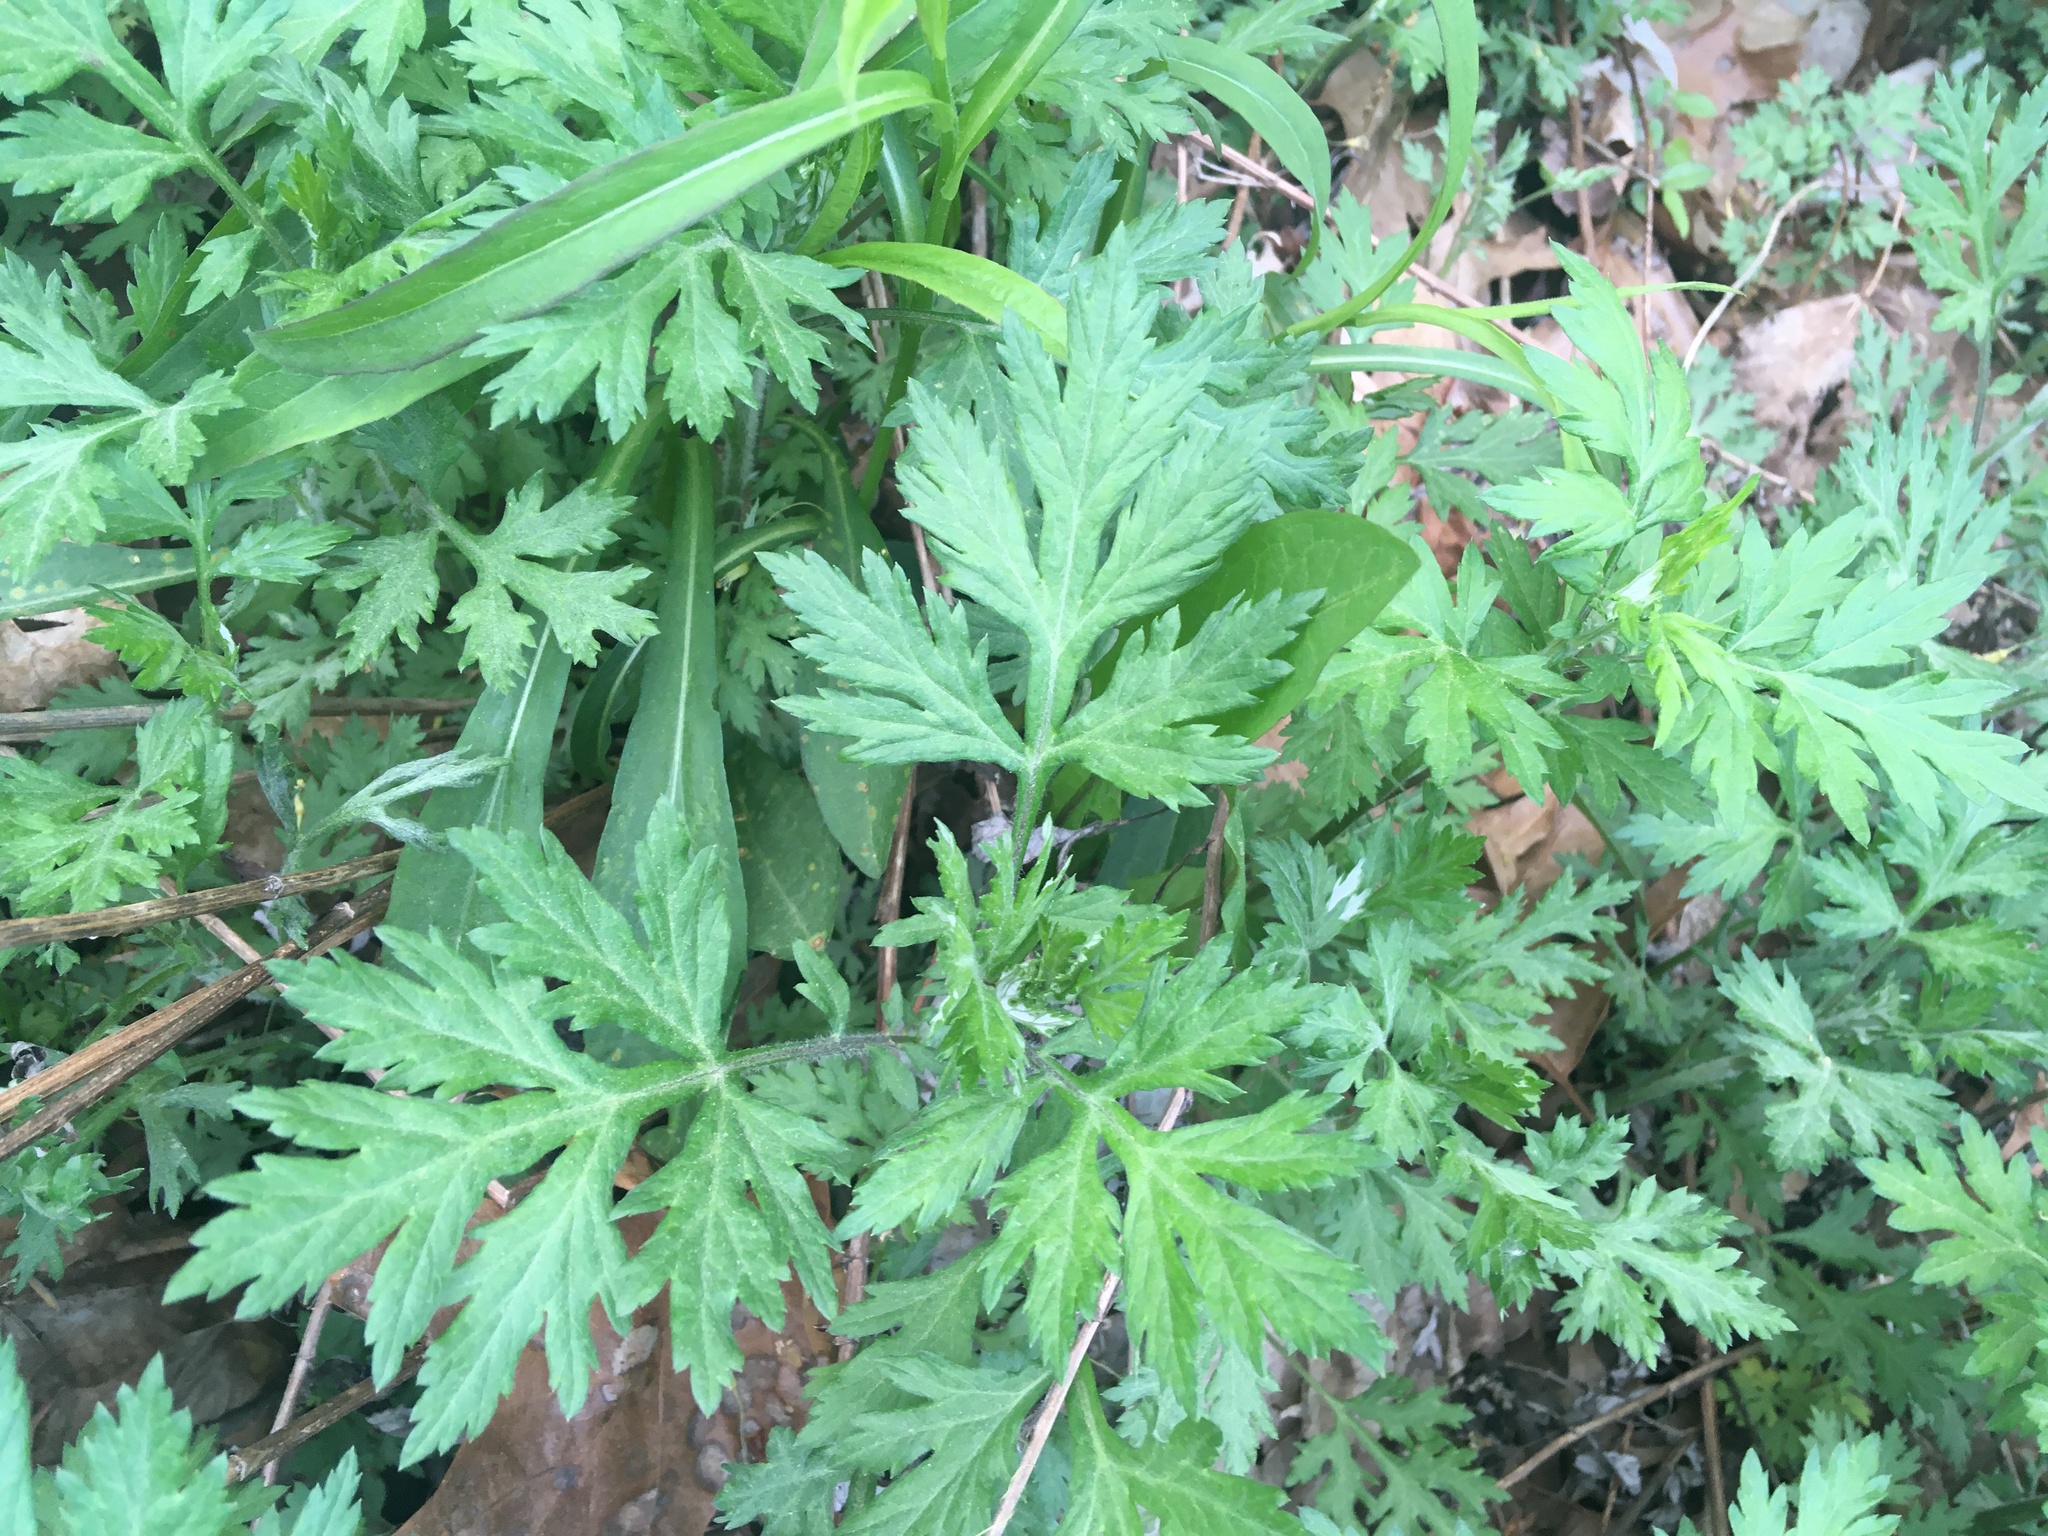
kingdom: Plantae
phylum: Tracheophyta
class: Magnoliopsida
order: Asterales
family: Asteraceae
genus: Artemisia
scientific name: Artemisia vulgaris
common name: Mugwort
